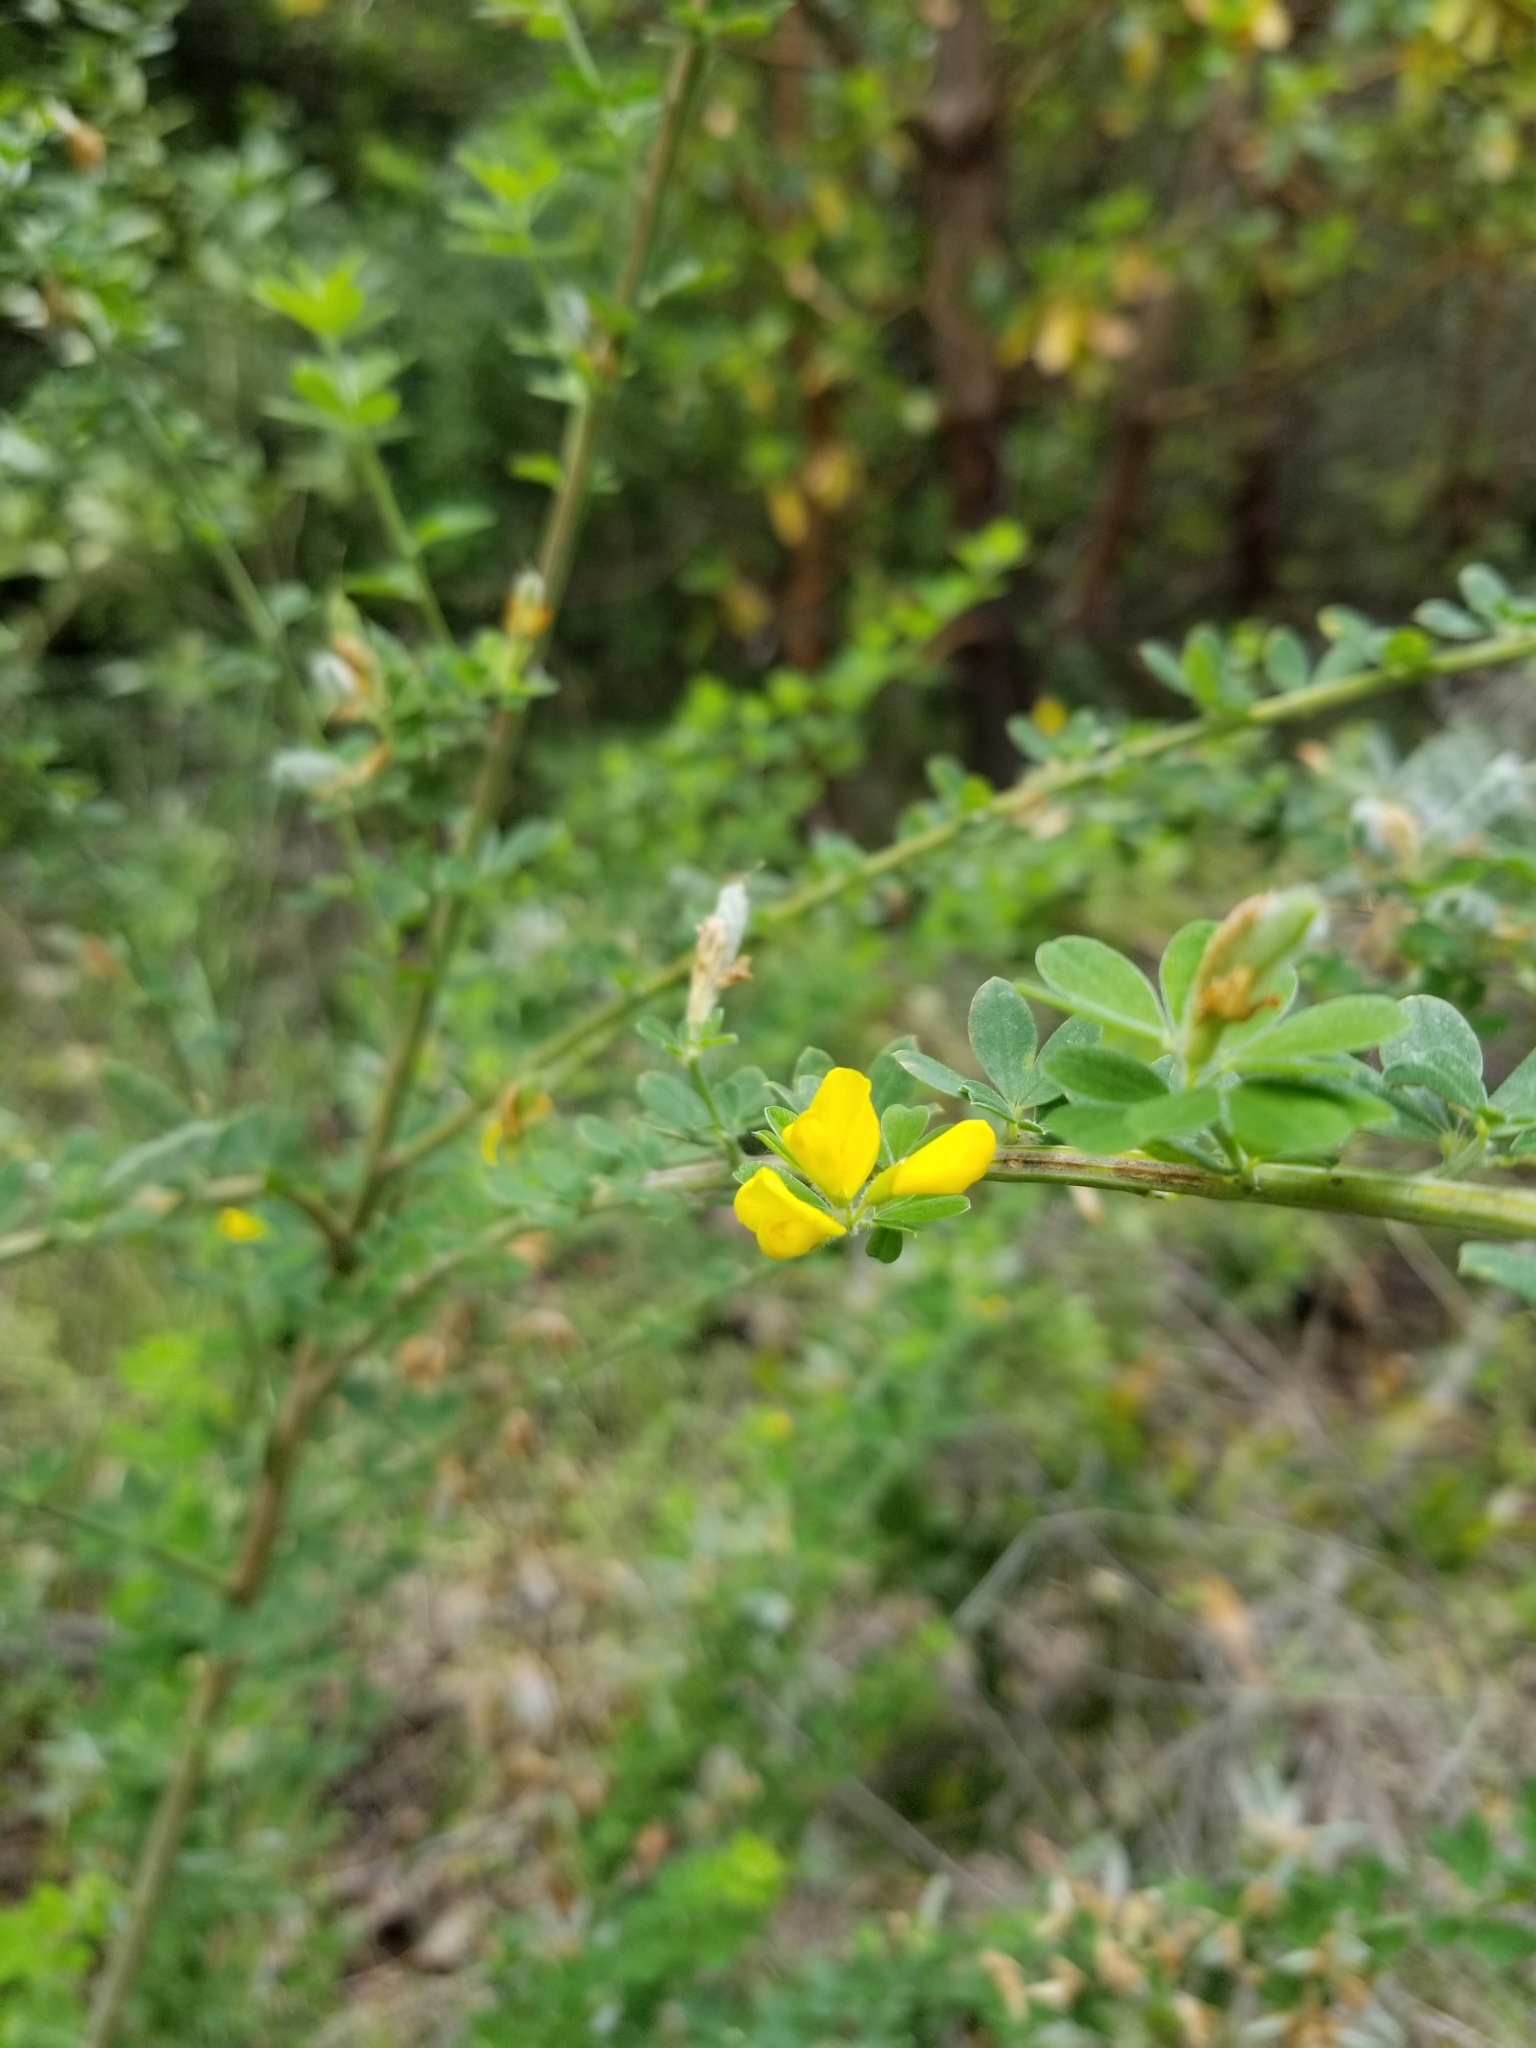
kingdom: Plantae
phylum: Tracheophyta
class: Magnoliopsida
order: Fabales
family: Fabaceae
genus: Genista
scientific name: Genista monspessulana
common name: Montpellier broom
